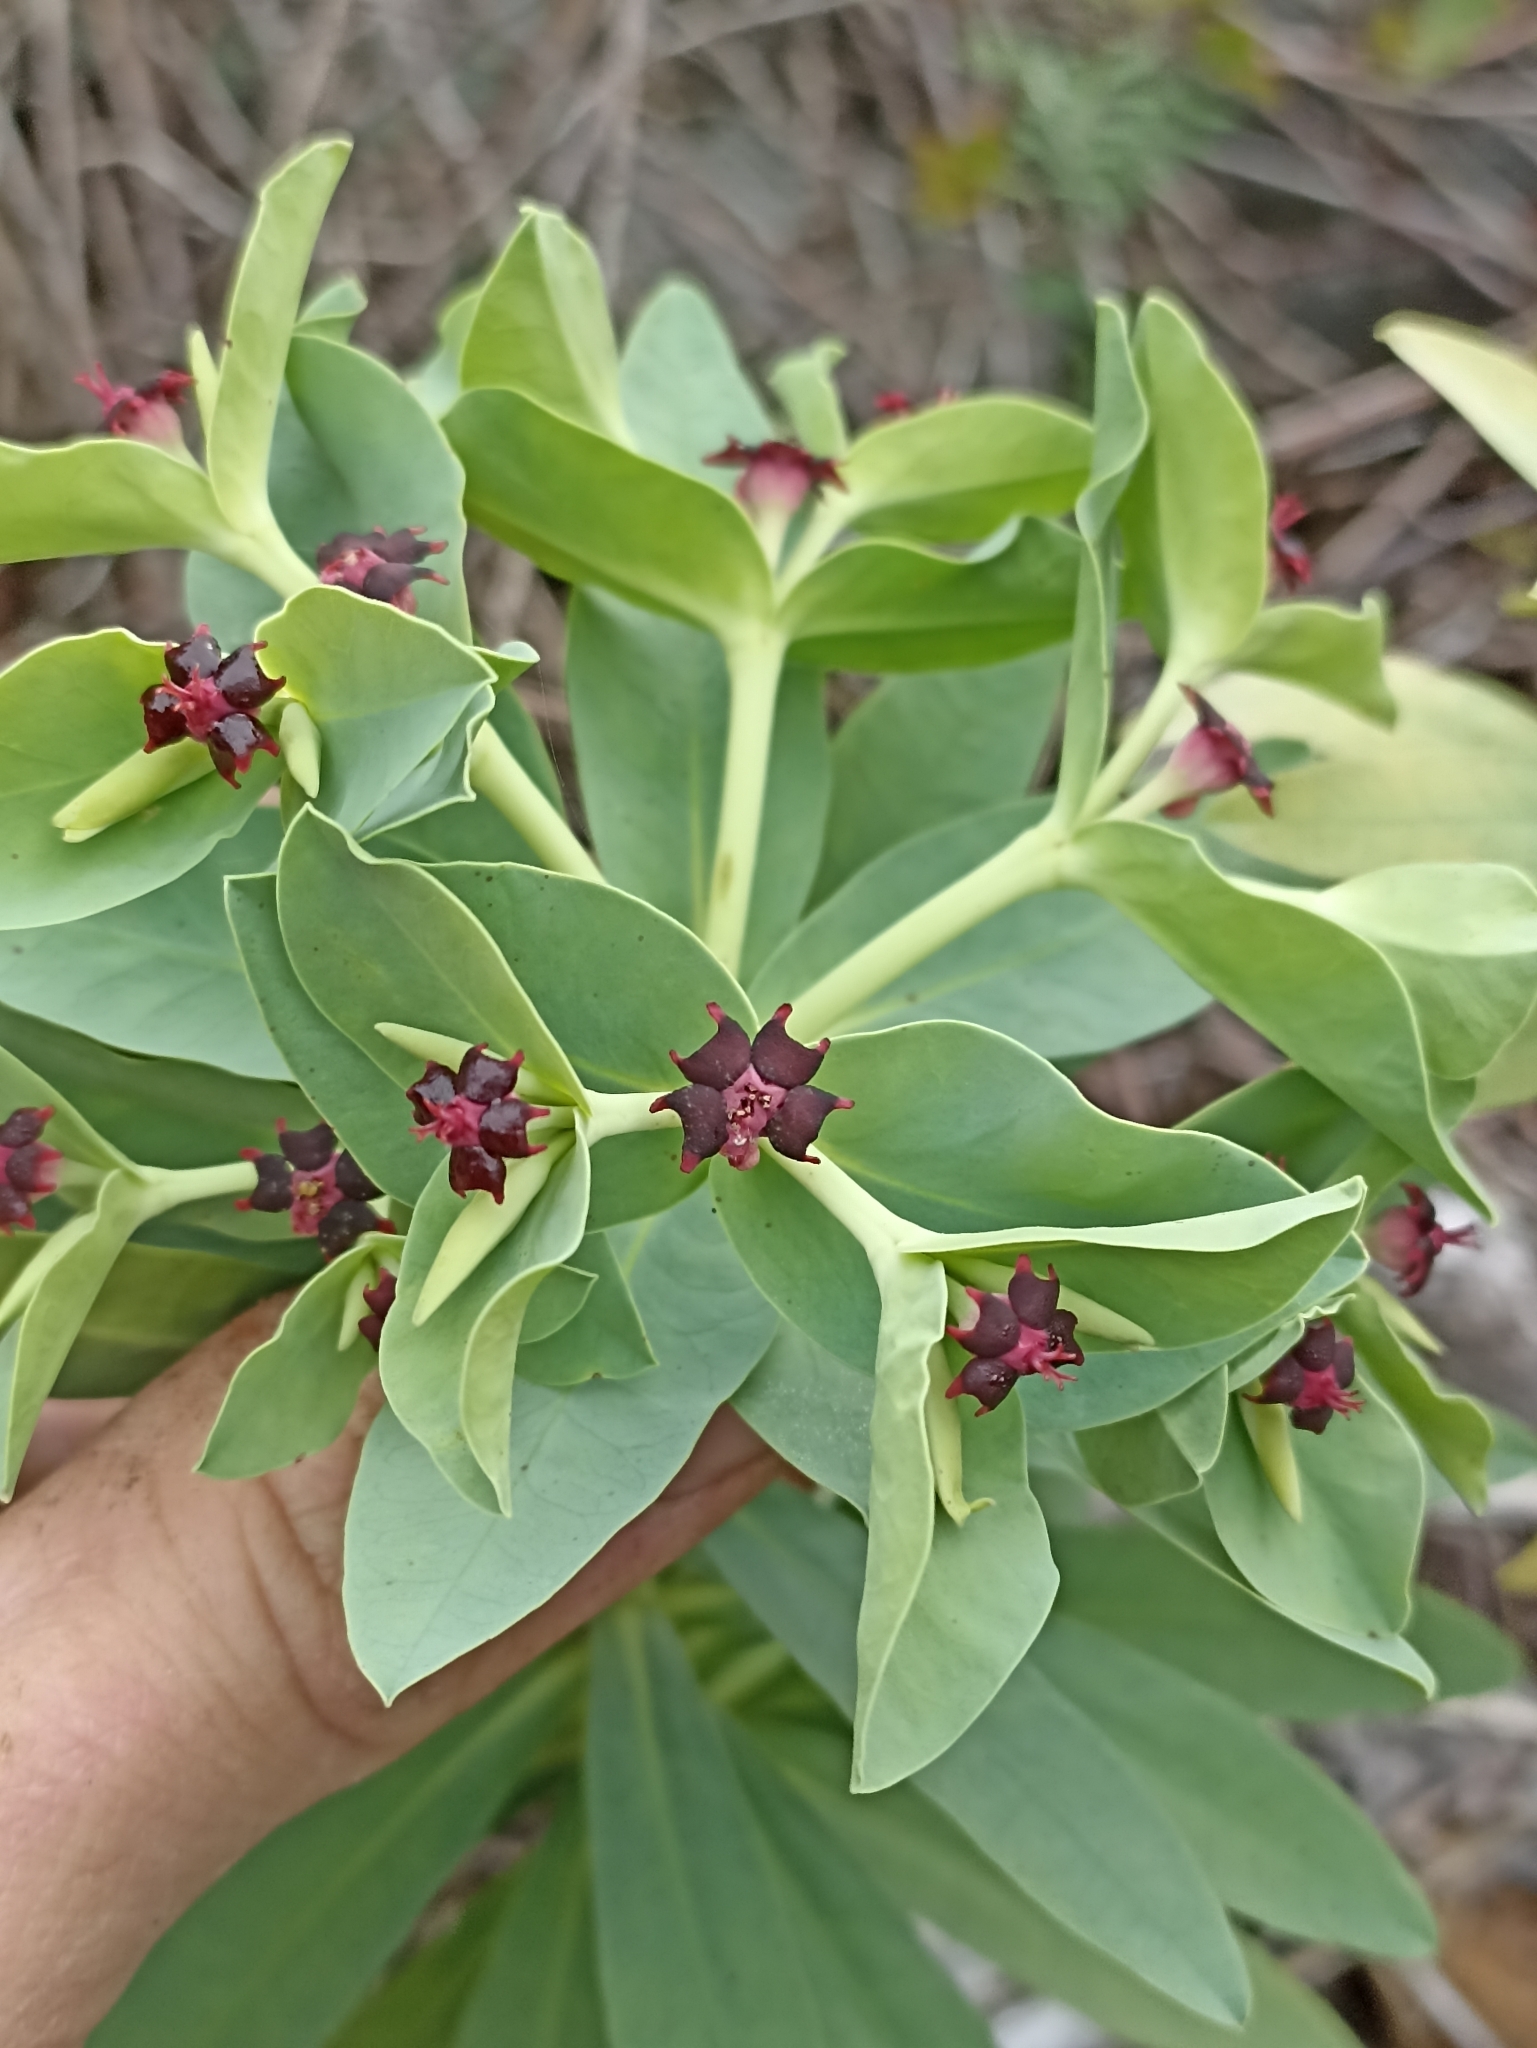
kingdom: Plantae
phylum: Tracheophyta
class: Magnoliopsida
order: Malpighiales
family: Euphorbiaceae
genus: Euphorbia
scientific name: Euphorbia glauca
